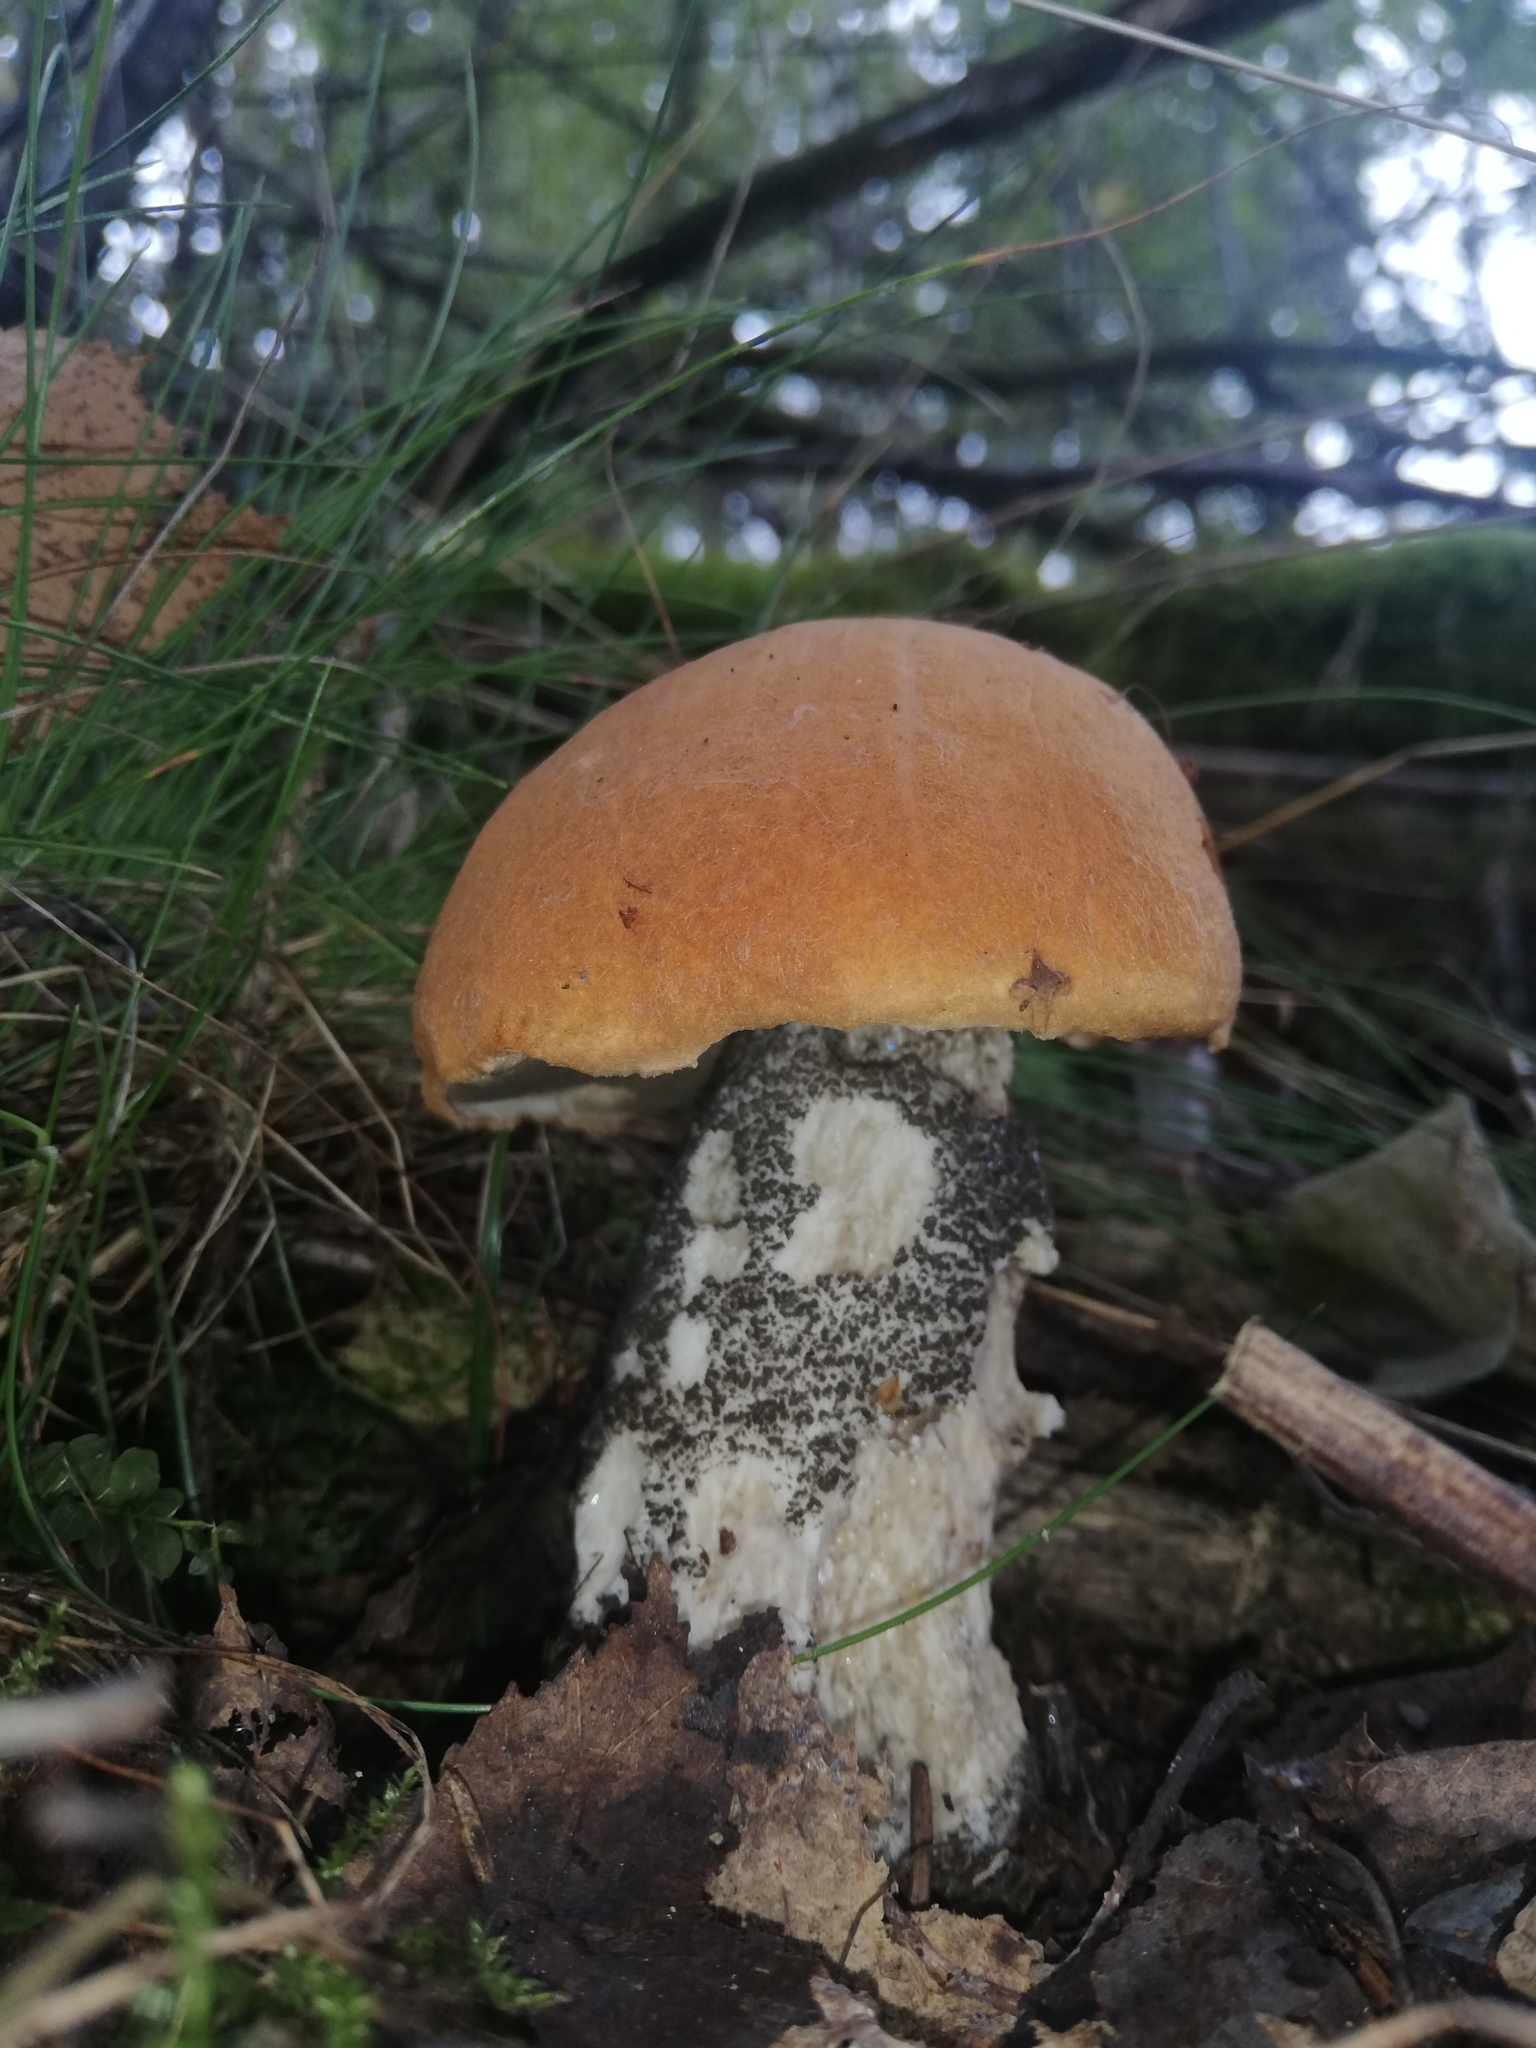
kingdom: Fungi
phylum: Basidiomycota
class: Agaricomycetes
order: Boletales
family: Boletaceae
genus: Leccinum
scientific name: Leccinum versipelle
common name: Orange birch bolete
